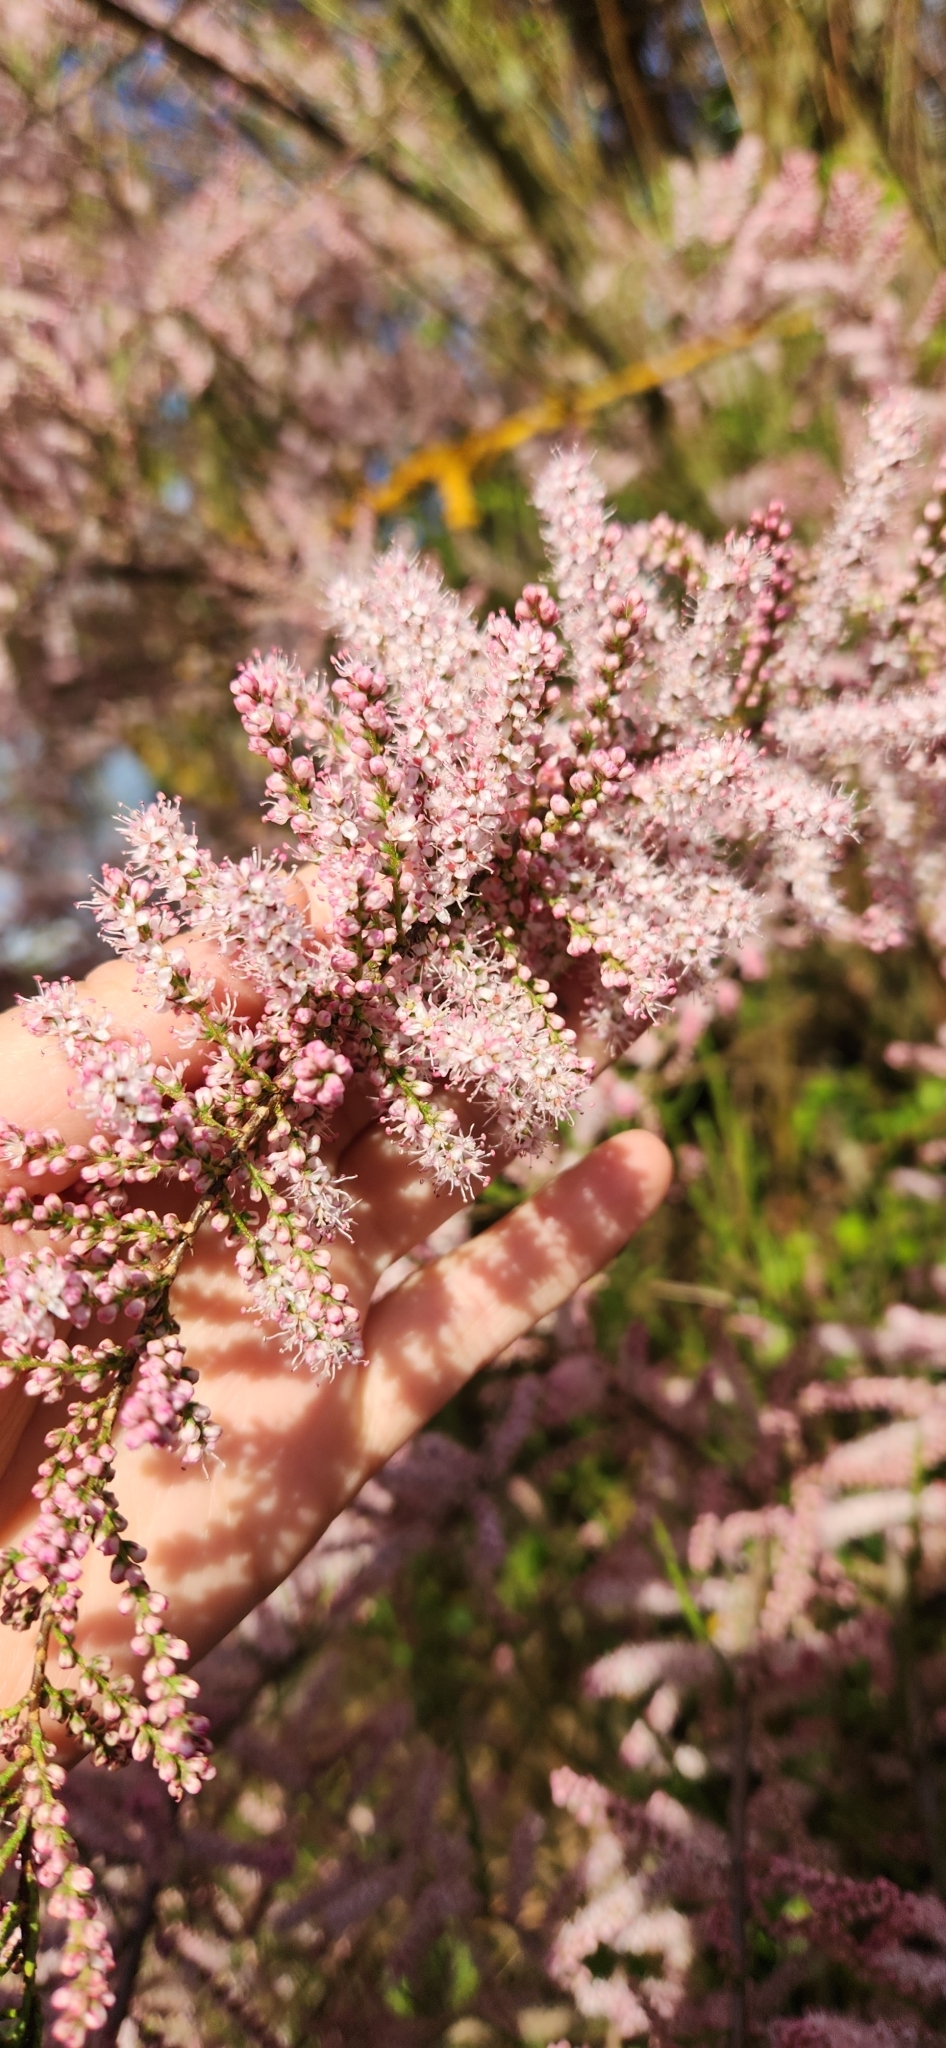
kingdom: Plantae
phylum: Tracheophyta
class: Magnoliopsida
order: Caryophyllales
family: Tamaricaceae
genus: Tamarix
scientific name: Tamarix parviflora
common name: Smallflower tamarisk
